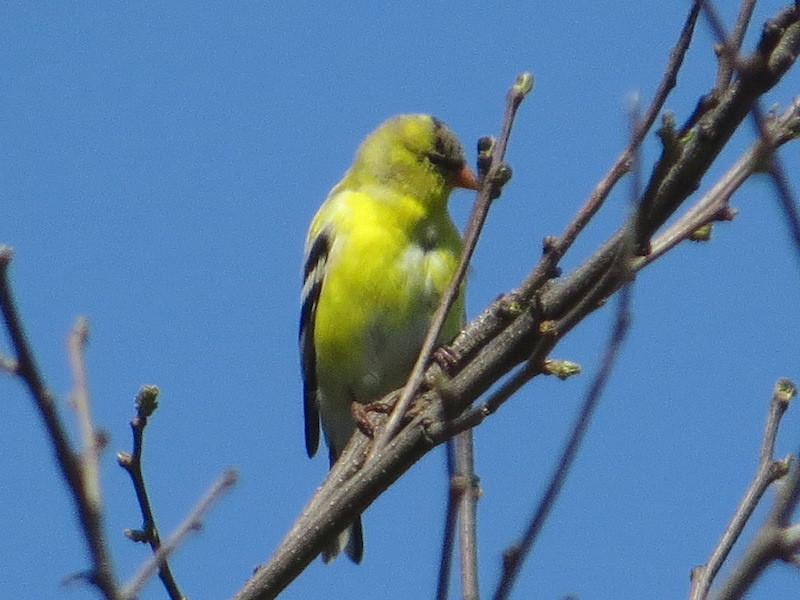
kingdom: Animalia
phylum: Chordata
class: Aves
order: Passeriformes
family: Fringillidae
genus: Spinus
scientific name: Spinus tristis
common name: American goldfinch
